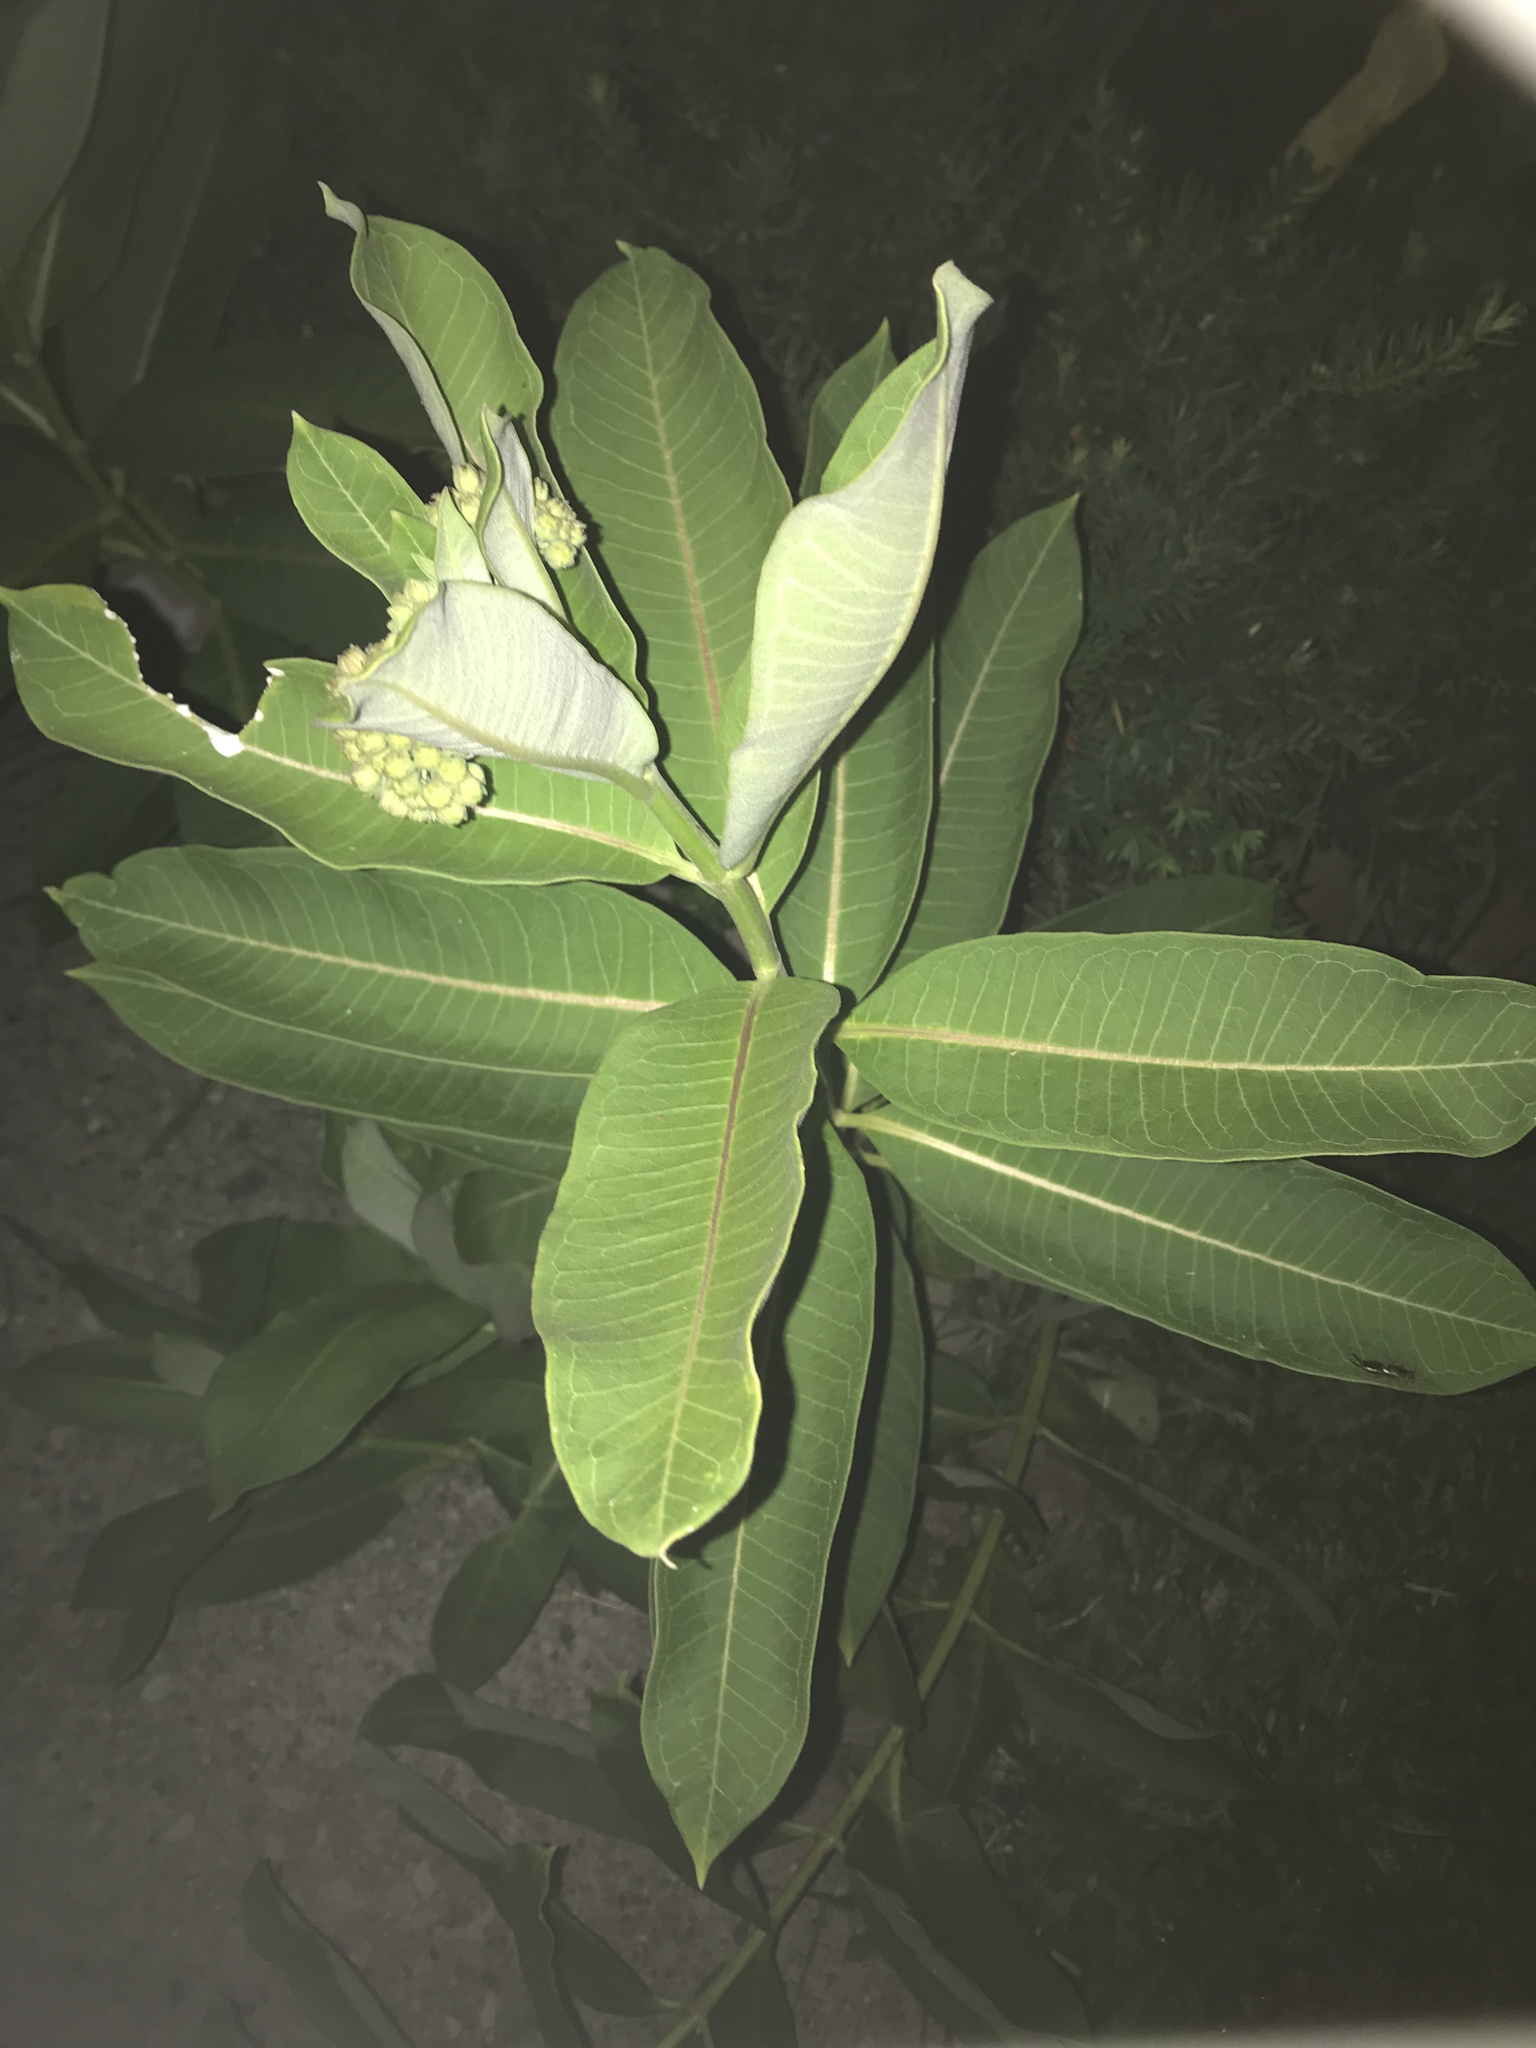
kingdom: Plantae
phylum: Tracheophyta
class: Magnoliopsida
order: Gentianales
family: Apocynaceae
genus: Asclepias
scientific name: Asclepias syriaca
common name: Common milkweed
